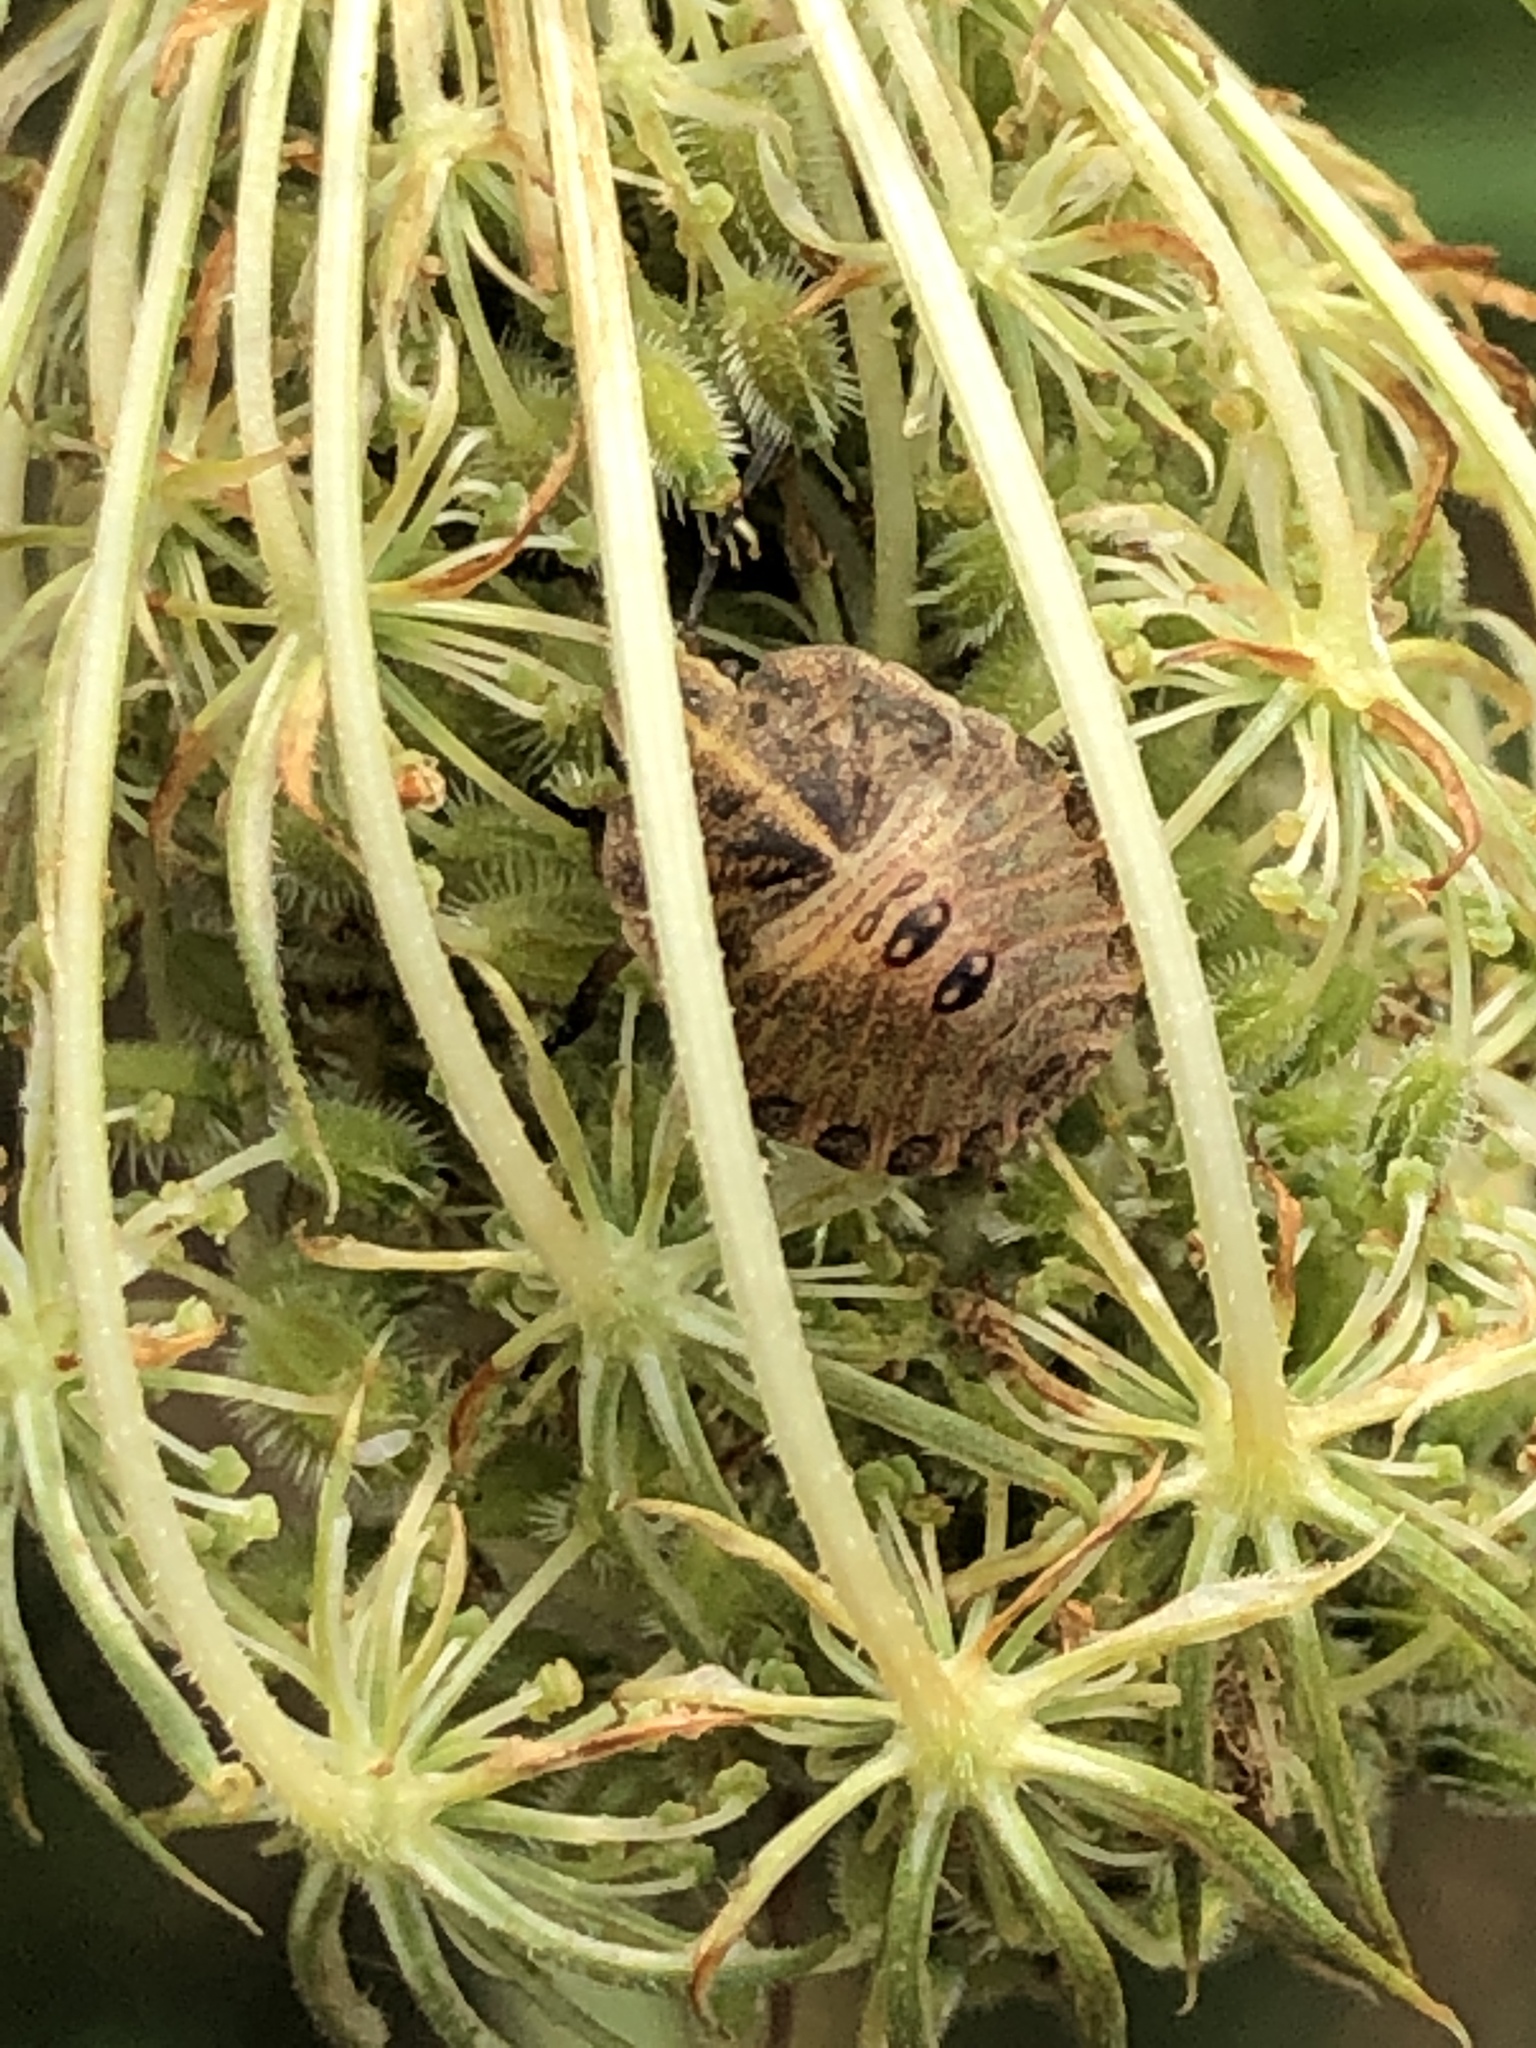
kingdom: Animalia
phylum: Arthropoda
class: Insecta
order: Hemiptera
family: Pentatomidae
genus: Graphosoma
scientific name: Graphosoma italicum
